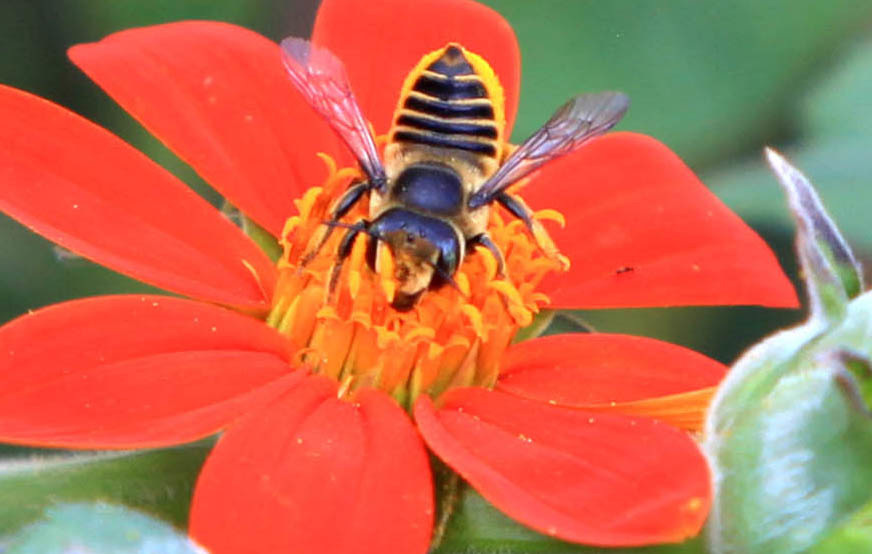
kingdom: Animalia
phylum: Arthropoda
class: Insecta
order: Hymenoptera
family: Megachilidae
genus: Megachile
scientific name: Megachile parallela
